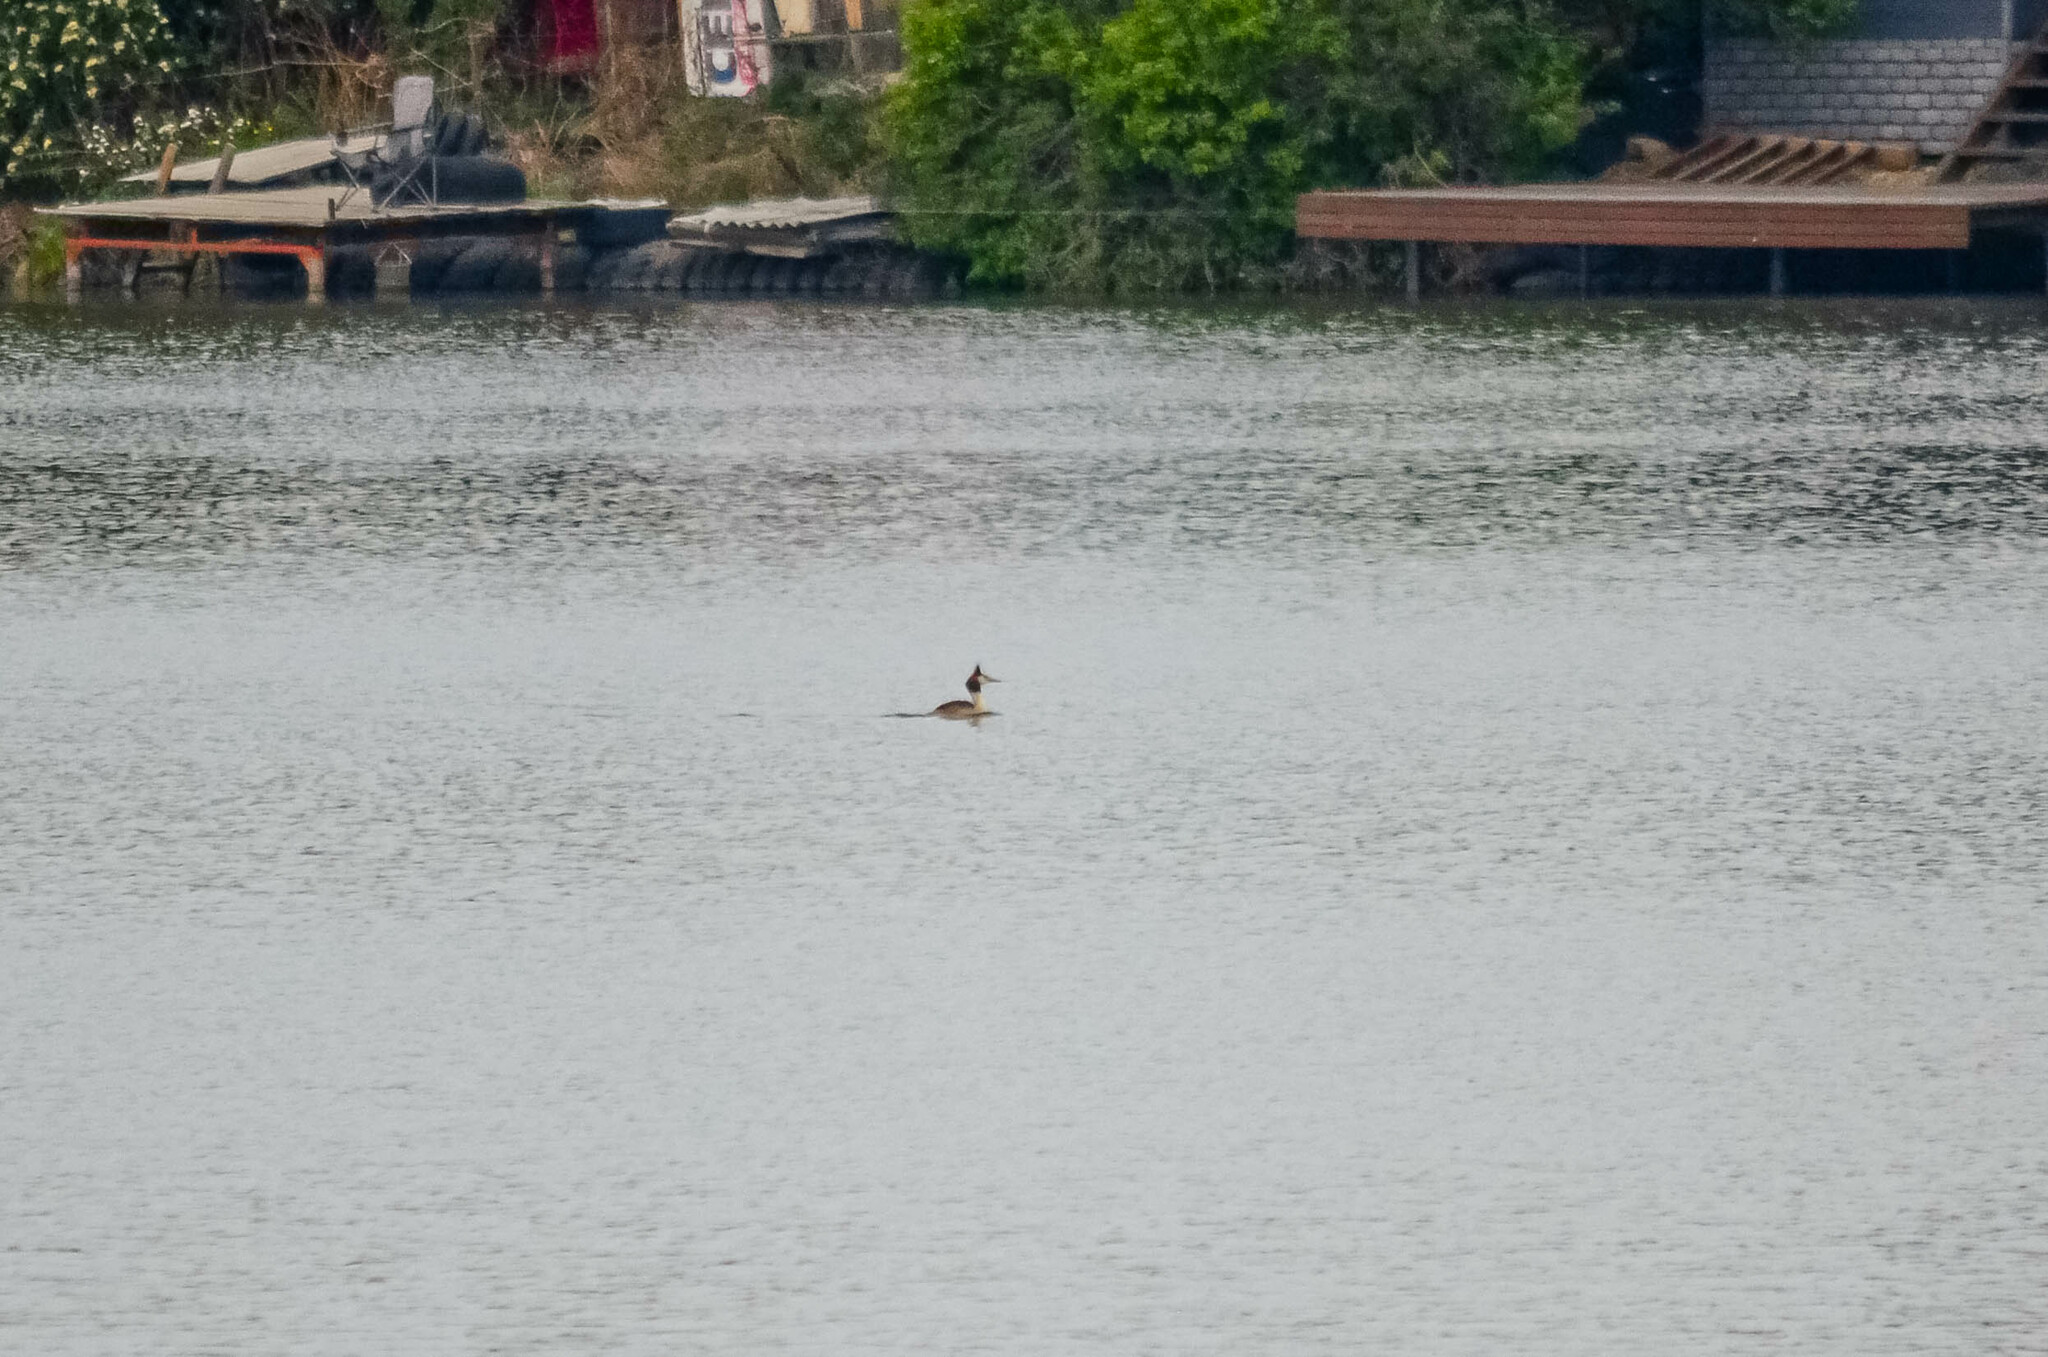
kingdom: Animalia
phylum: Chordata
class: Aves
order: Podicipediformes
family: Podicipedidae
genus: Podiceps
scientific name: Podiceps cristatus
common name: Great crested grebe
